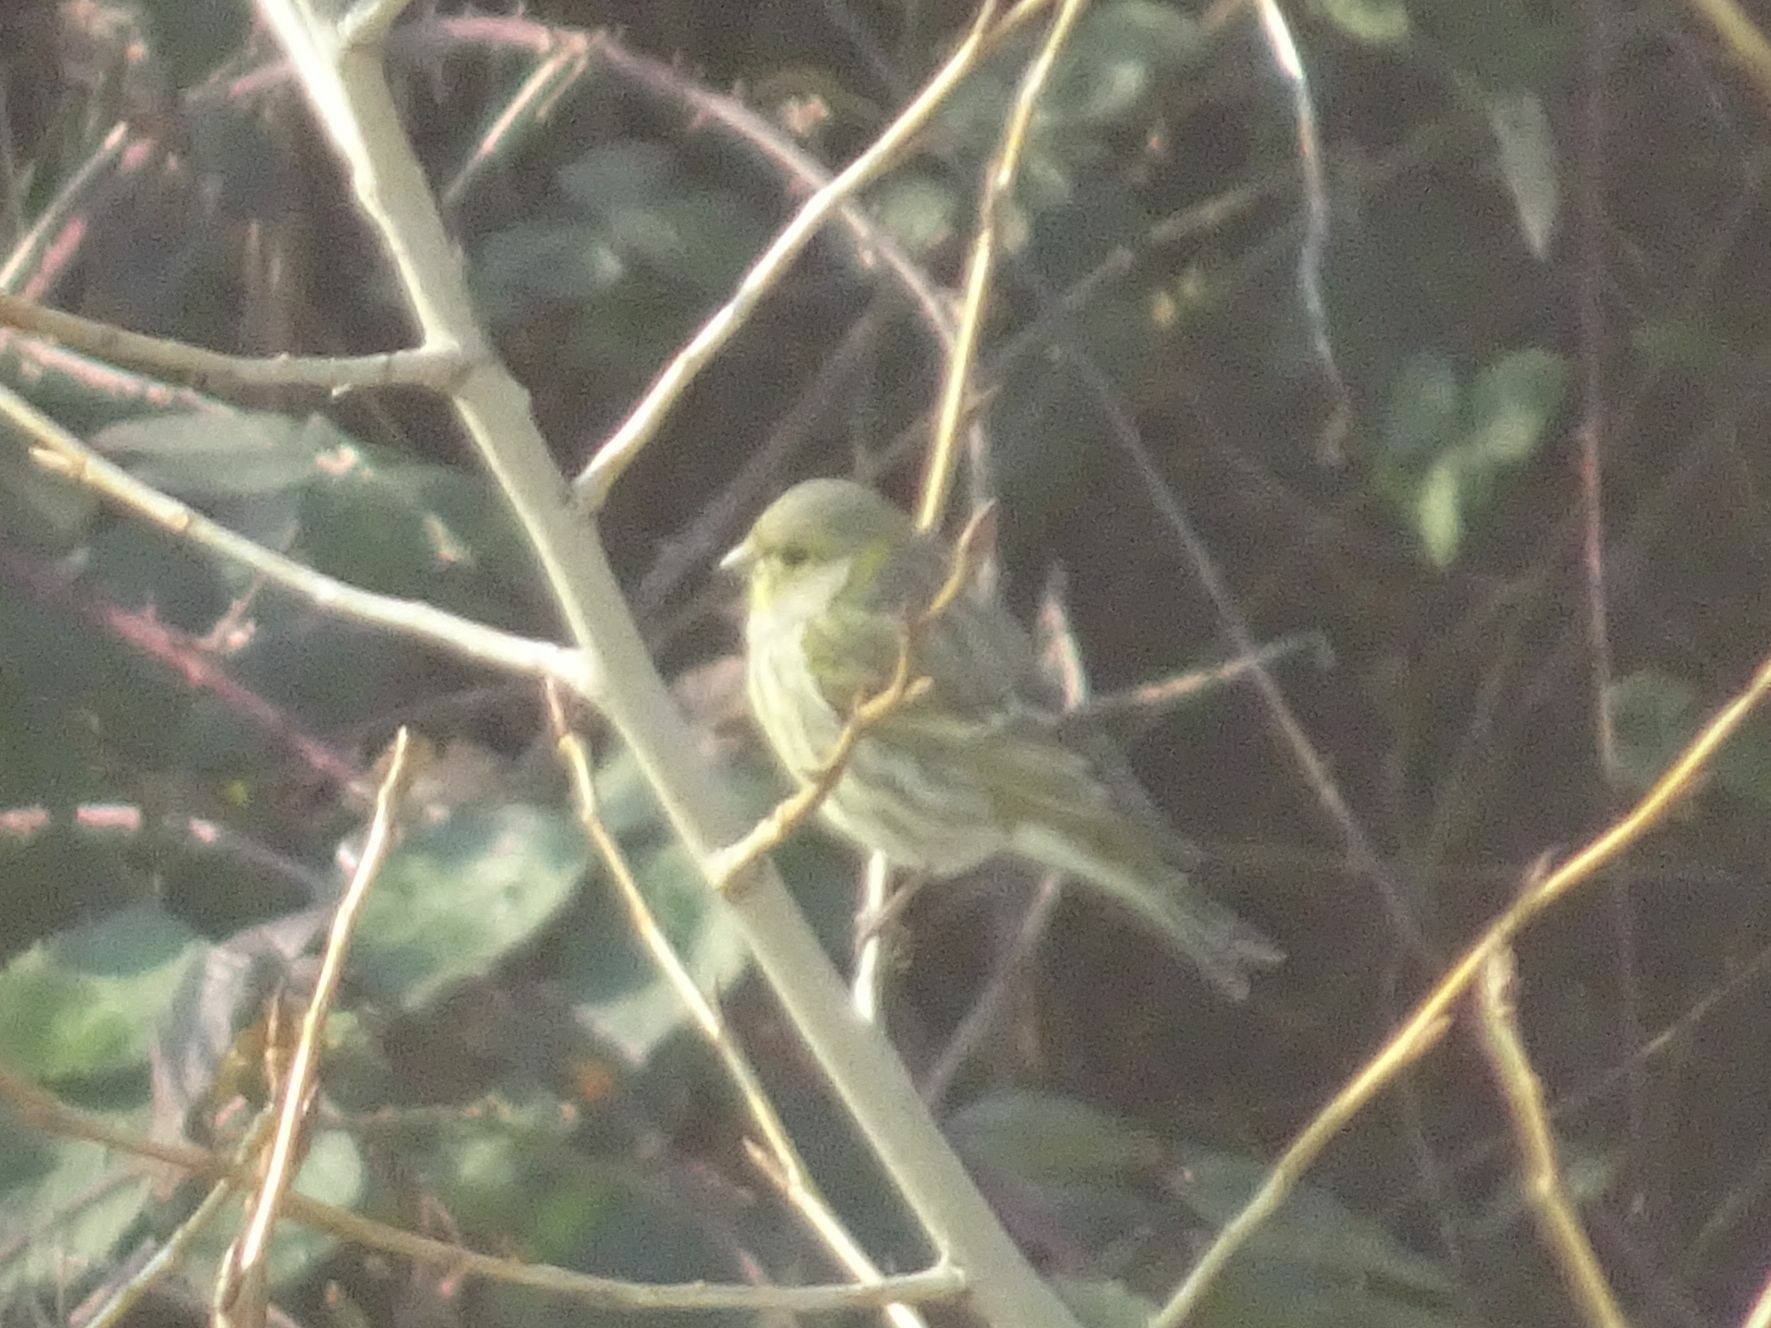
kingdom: Animalia
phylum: Chordata
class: Aves
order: Passeriformes
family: Fringillidae
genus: Serinus
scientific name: Serinus serinus
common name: European serin
